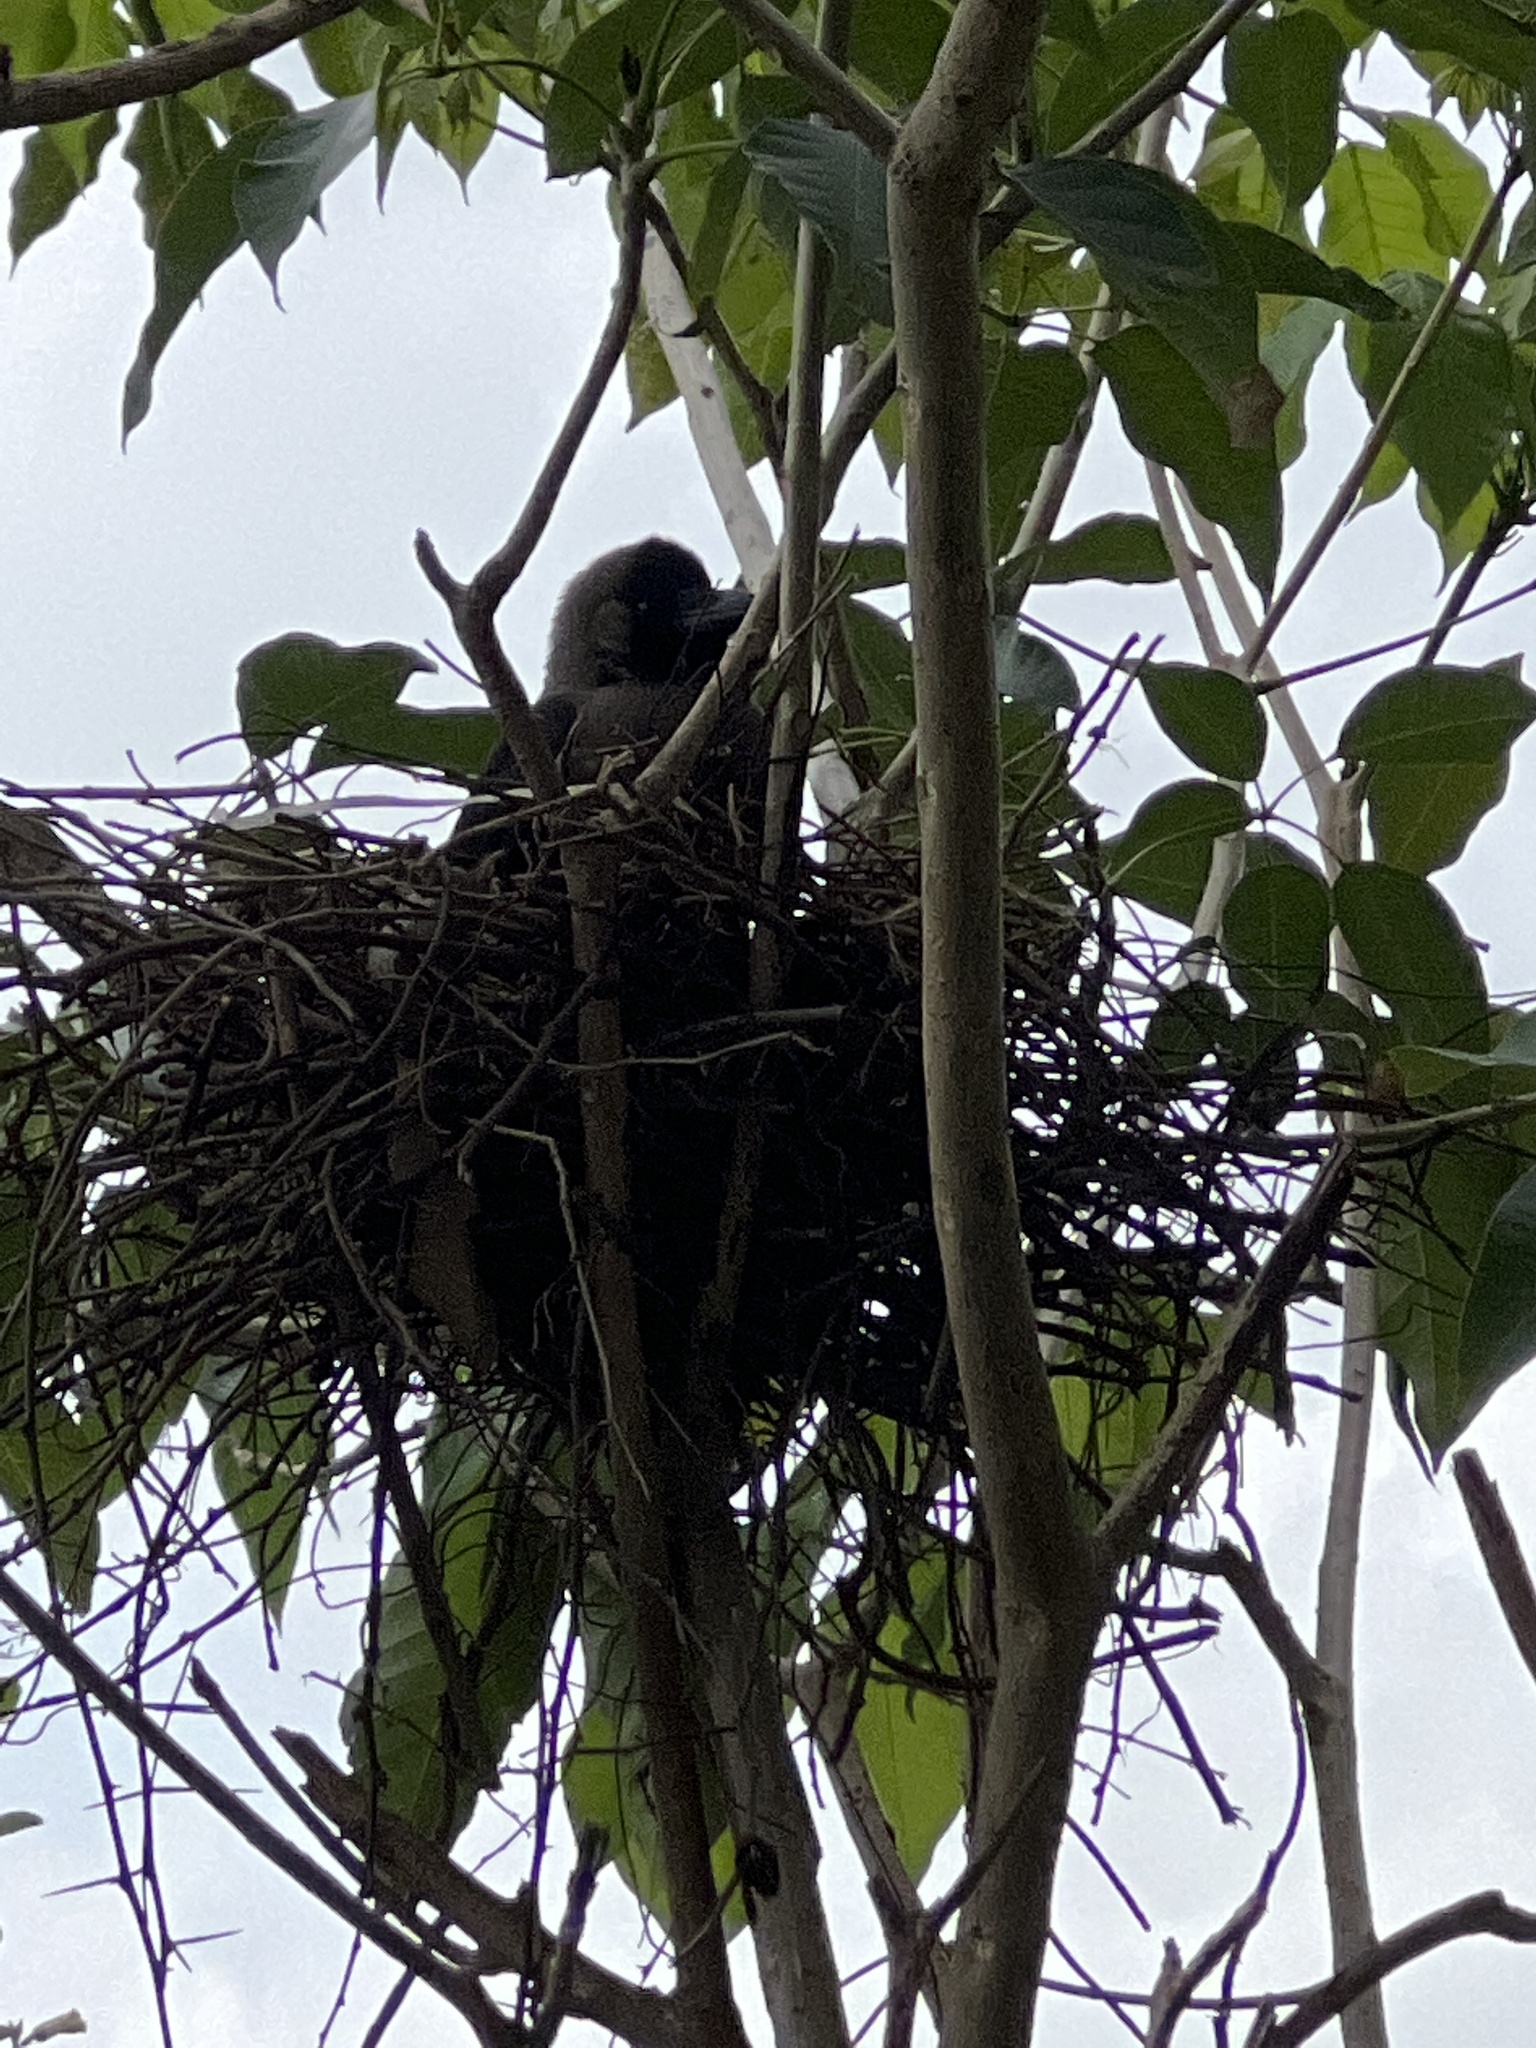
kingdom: Animalia
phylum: Chordata
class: Aves
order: Passeriformes
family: Corvidae
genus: Corvus
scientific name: Corvus splendens
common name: House crow
